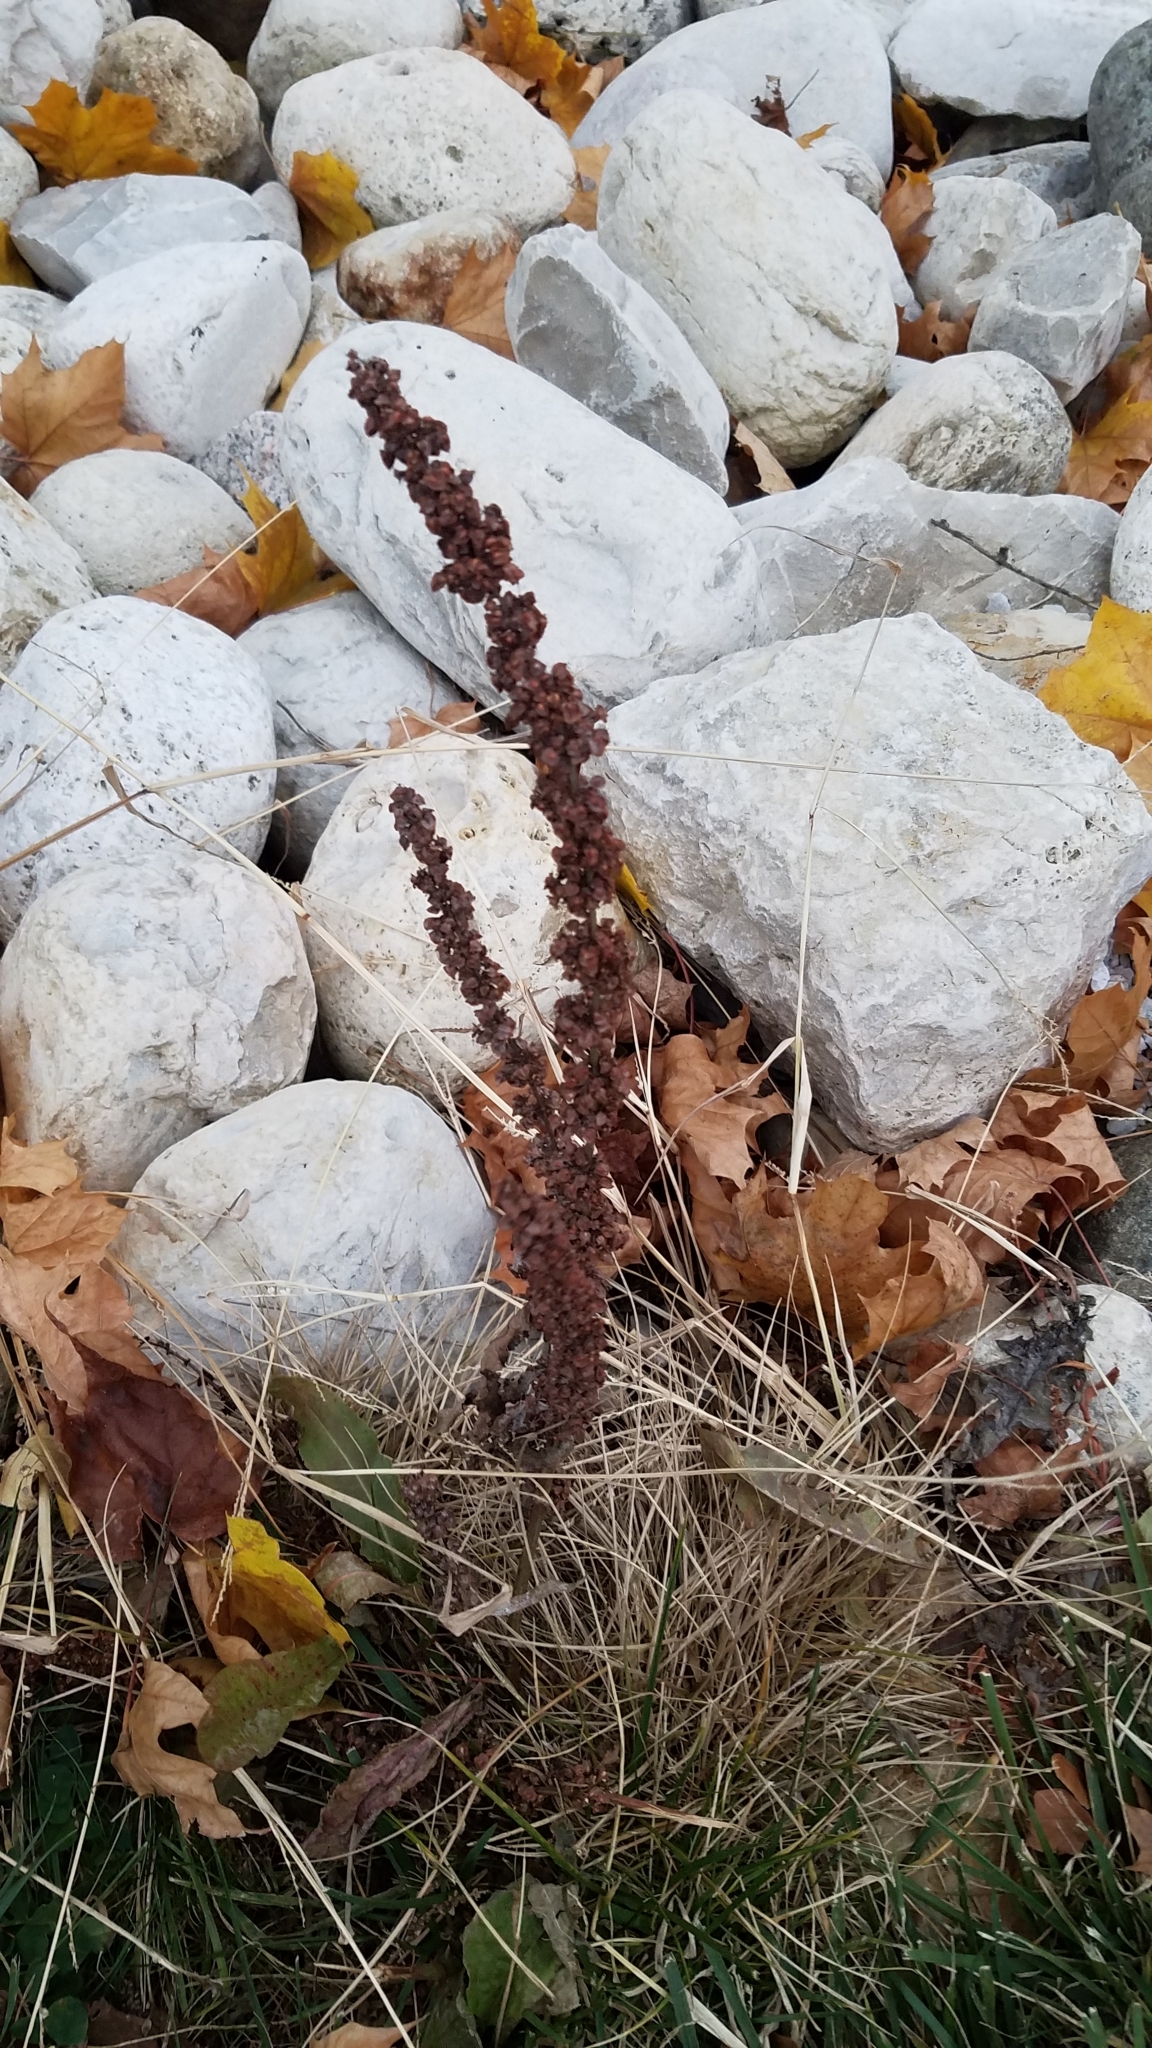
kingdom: Plantae
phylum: Tracheophyta
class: Magnoliopsida
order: Caryophyllales
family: Polygonaceae
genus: Rumex
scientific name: Rumex crispus
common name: Curled dock
